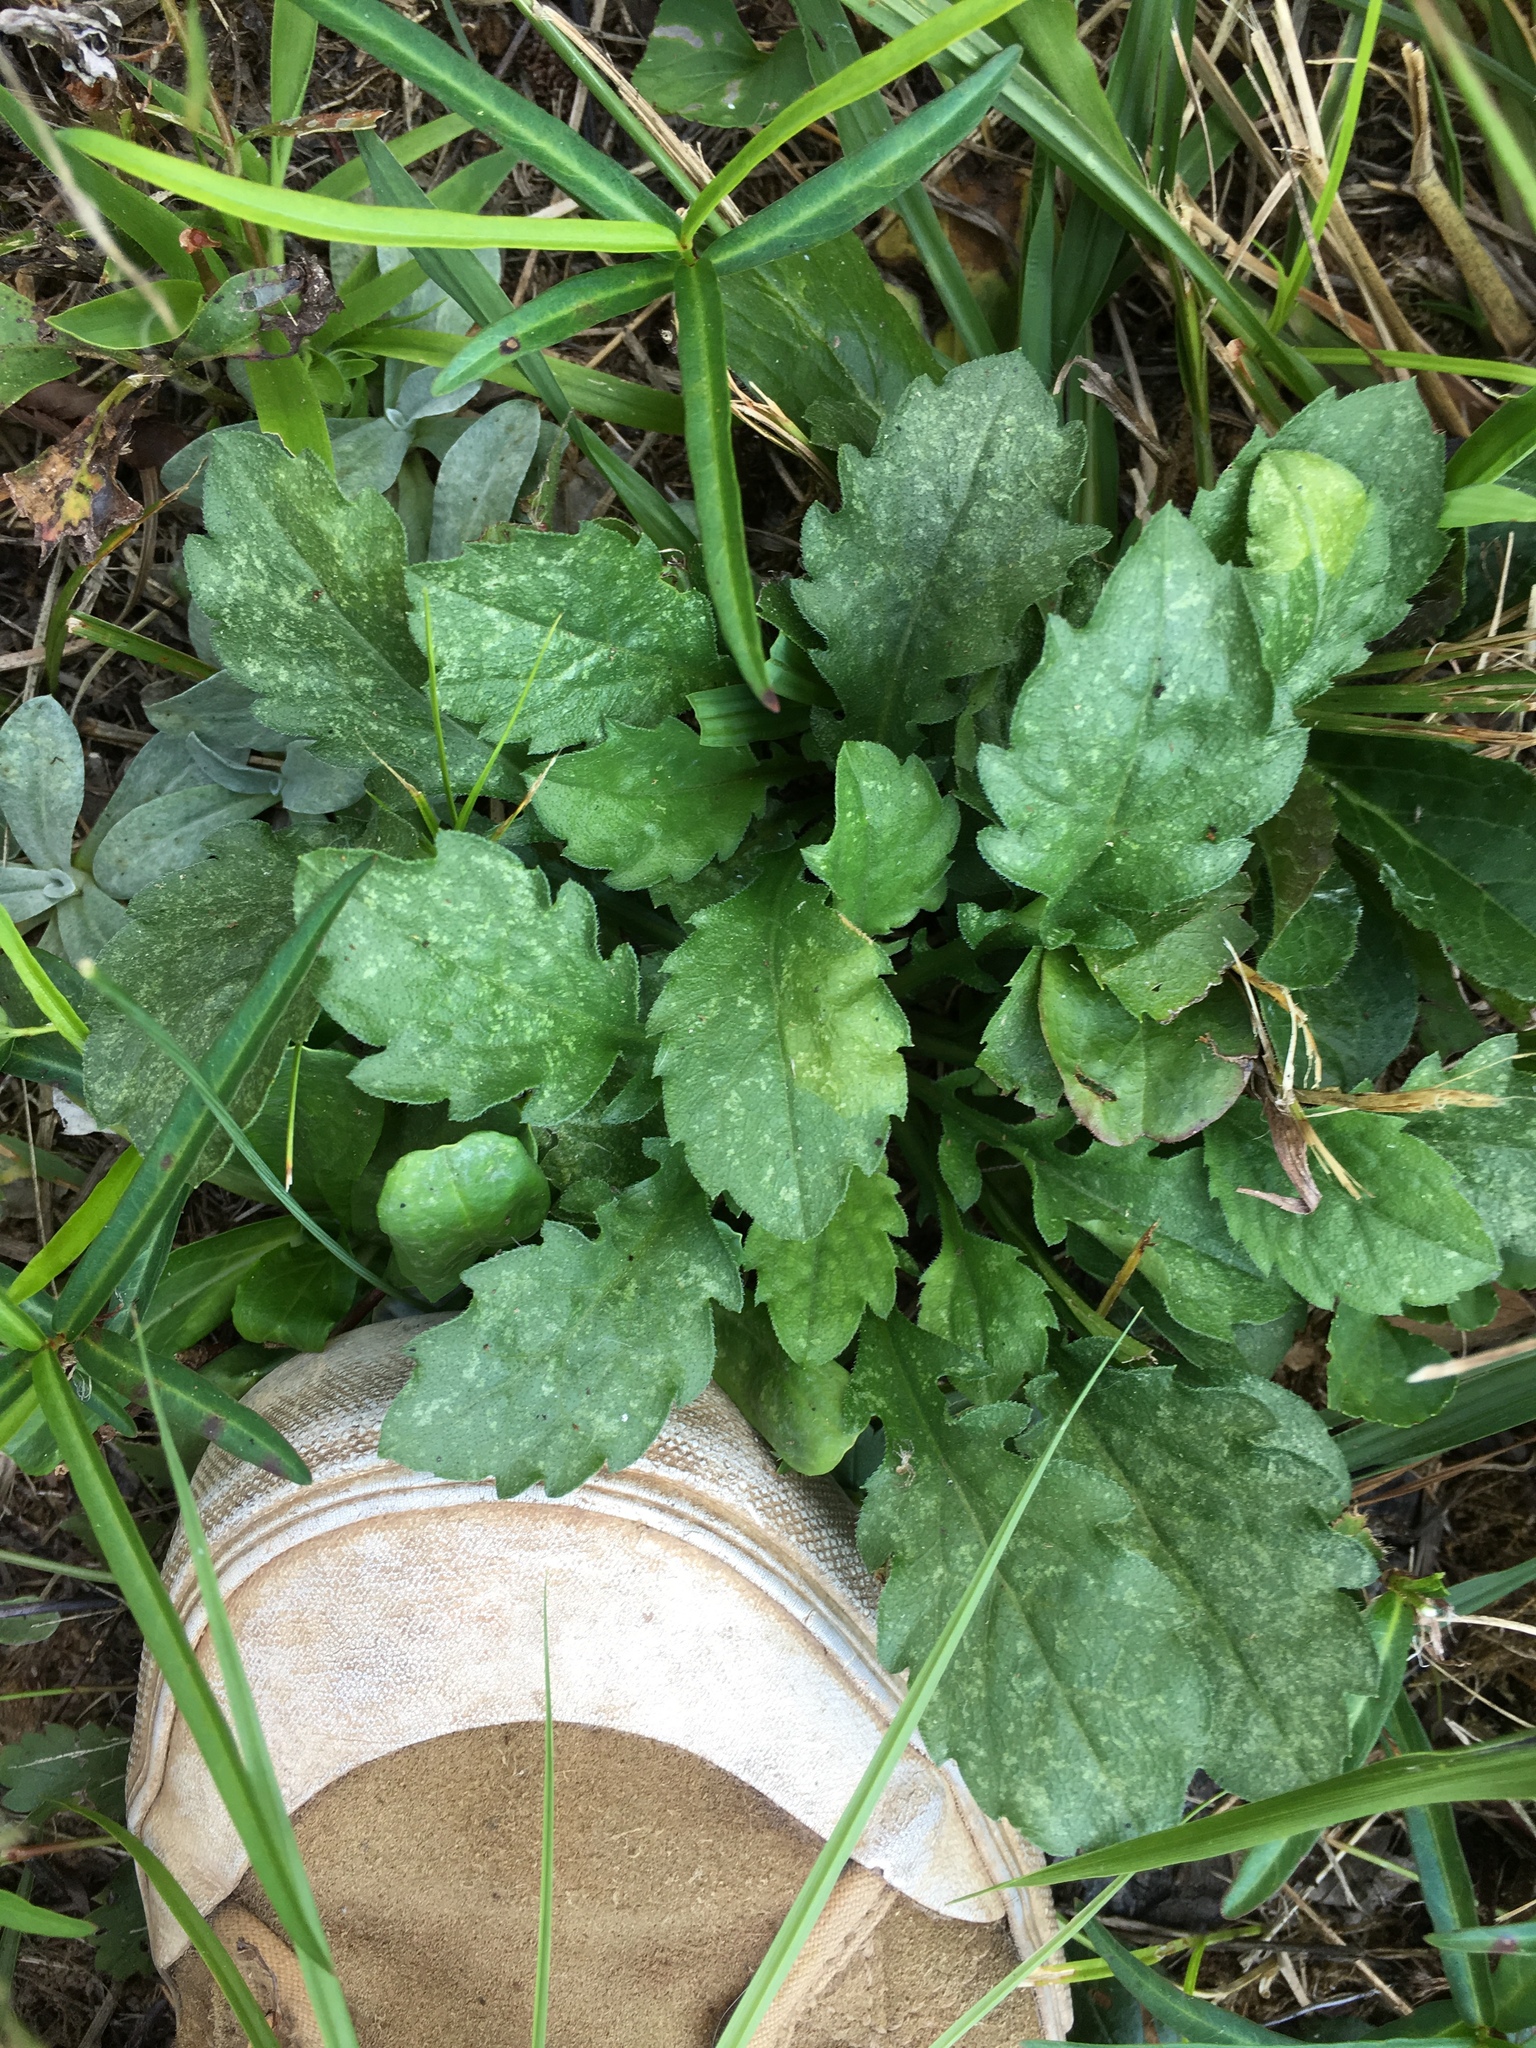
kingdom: Plantae
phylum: Tracheophyta
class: Magnoliopsida
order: Asterales
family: Asteraceae
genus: Leucanthemum
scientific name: Leucanthemum vulgare
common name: Oxeye daisy
